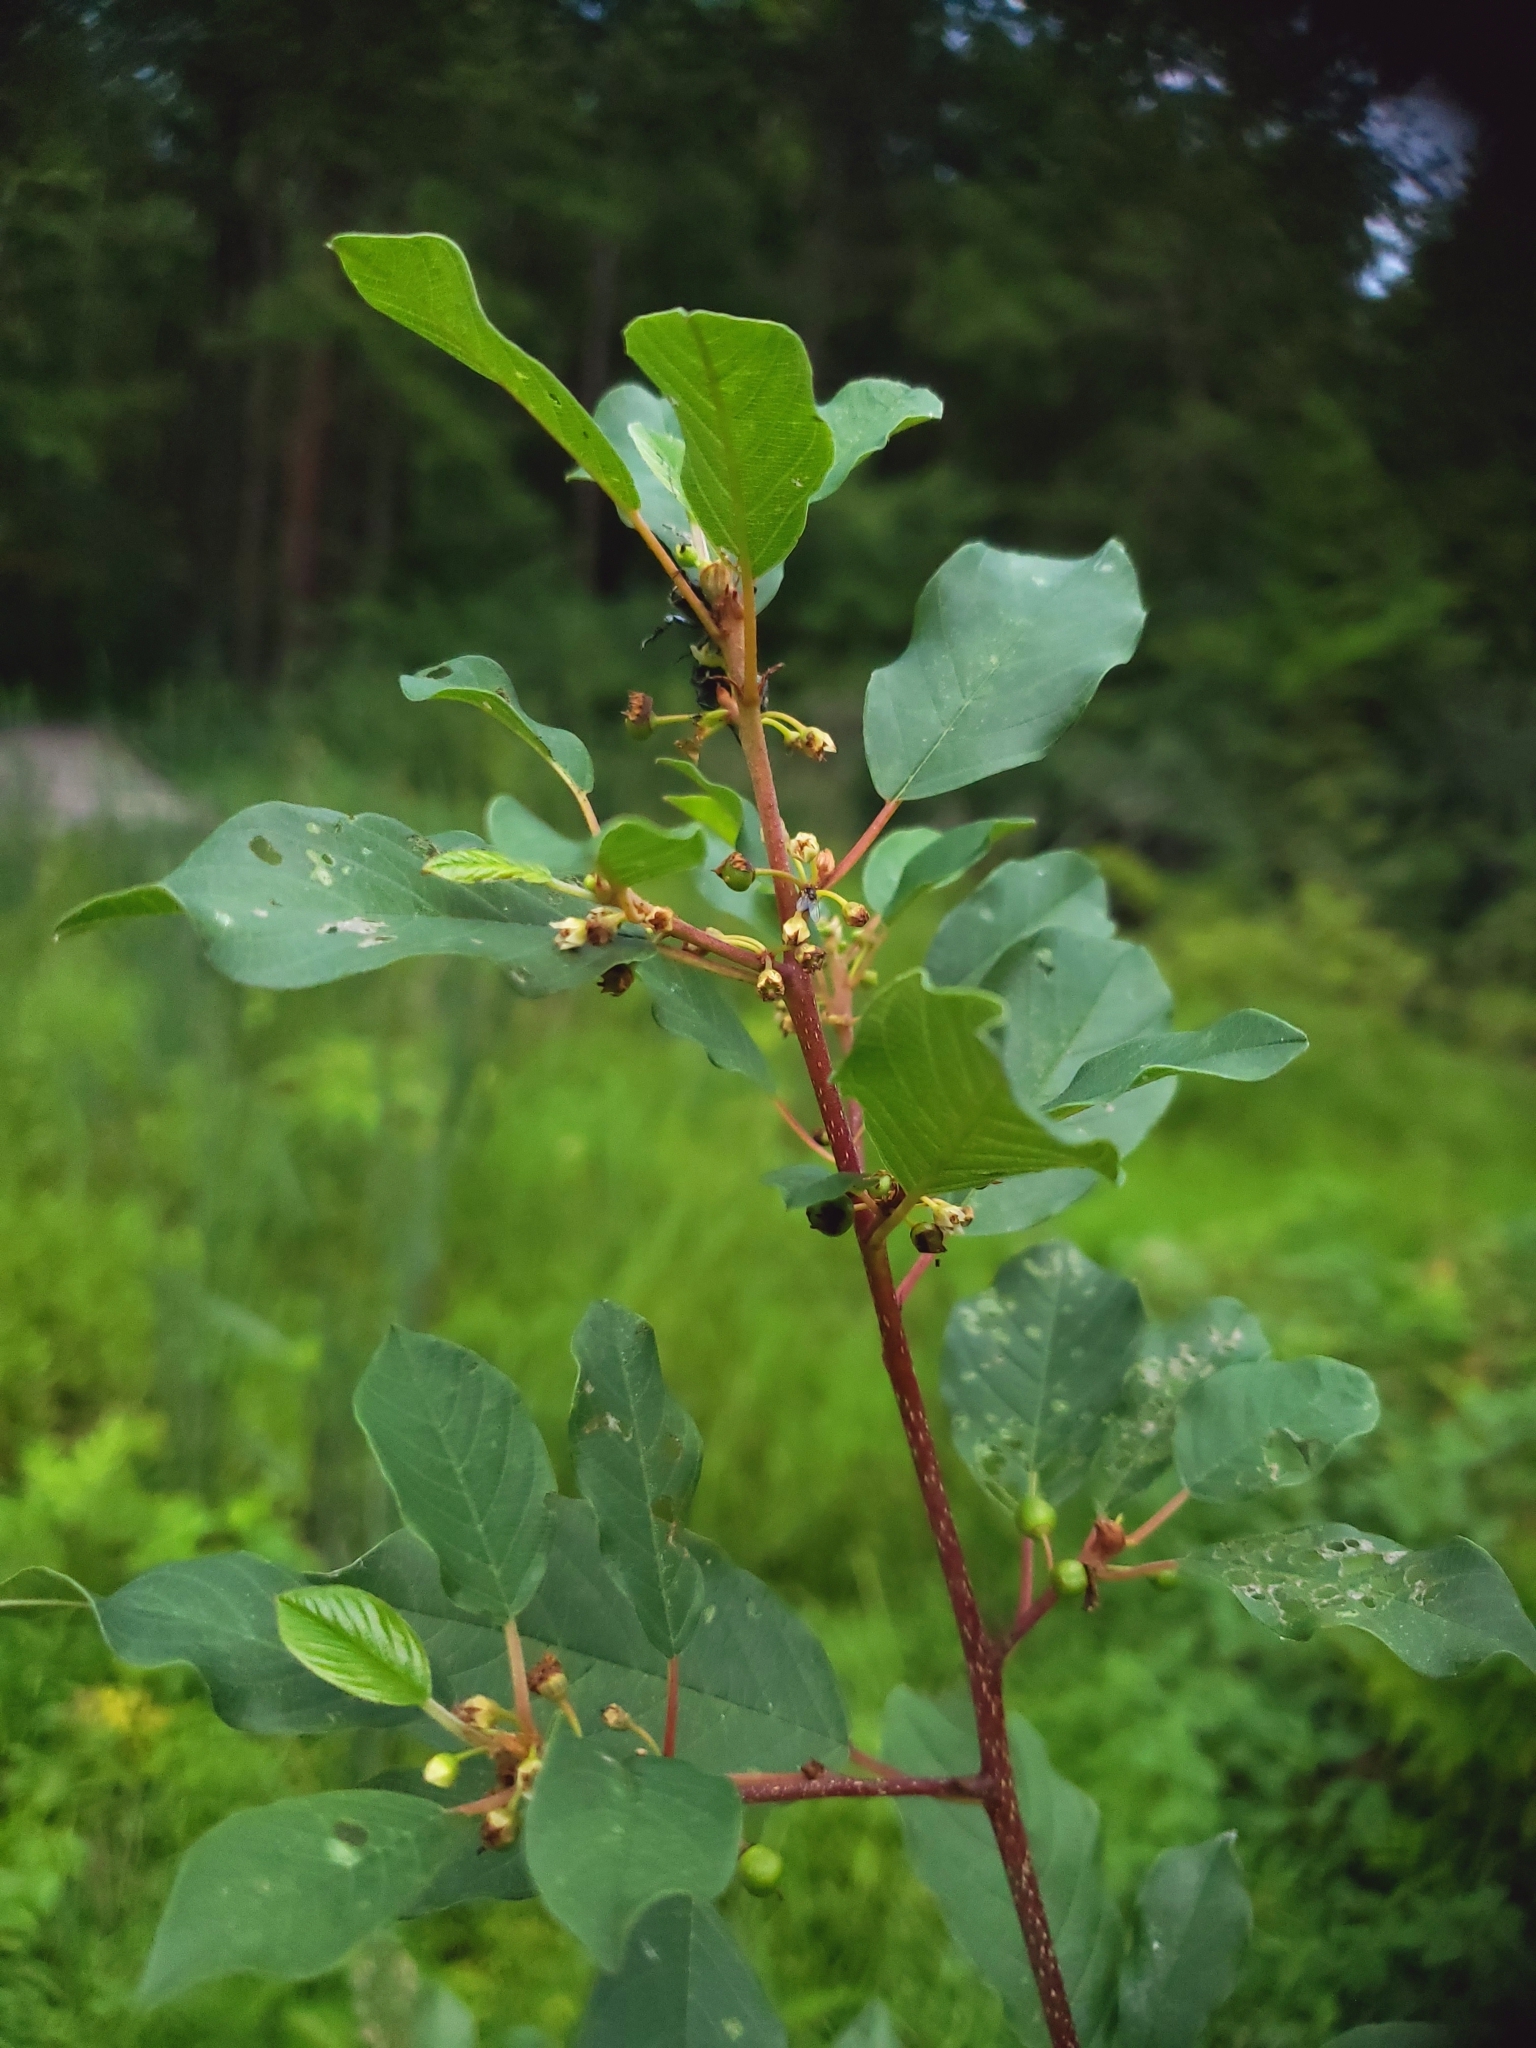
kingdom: Plantae
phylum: Tracheophyta
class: Magnoliopsida
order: Rosales
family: Rhamnaceae
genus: Frangula
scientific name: Frangula alnus
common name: Alder buckthorn
